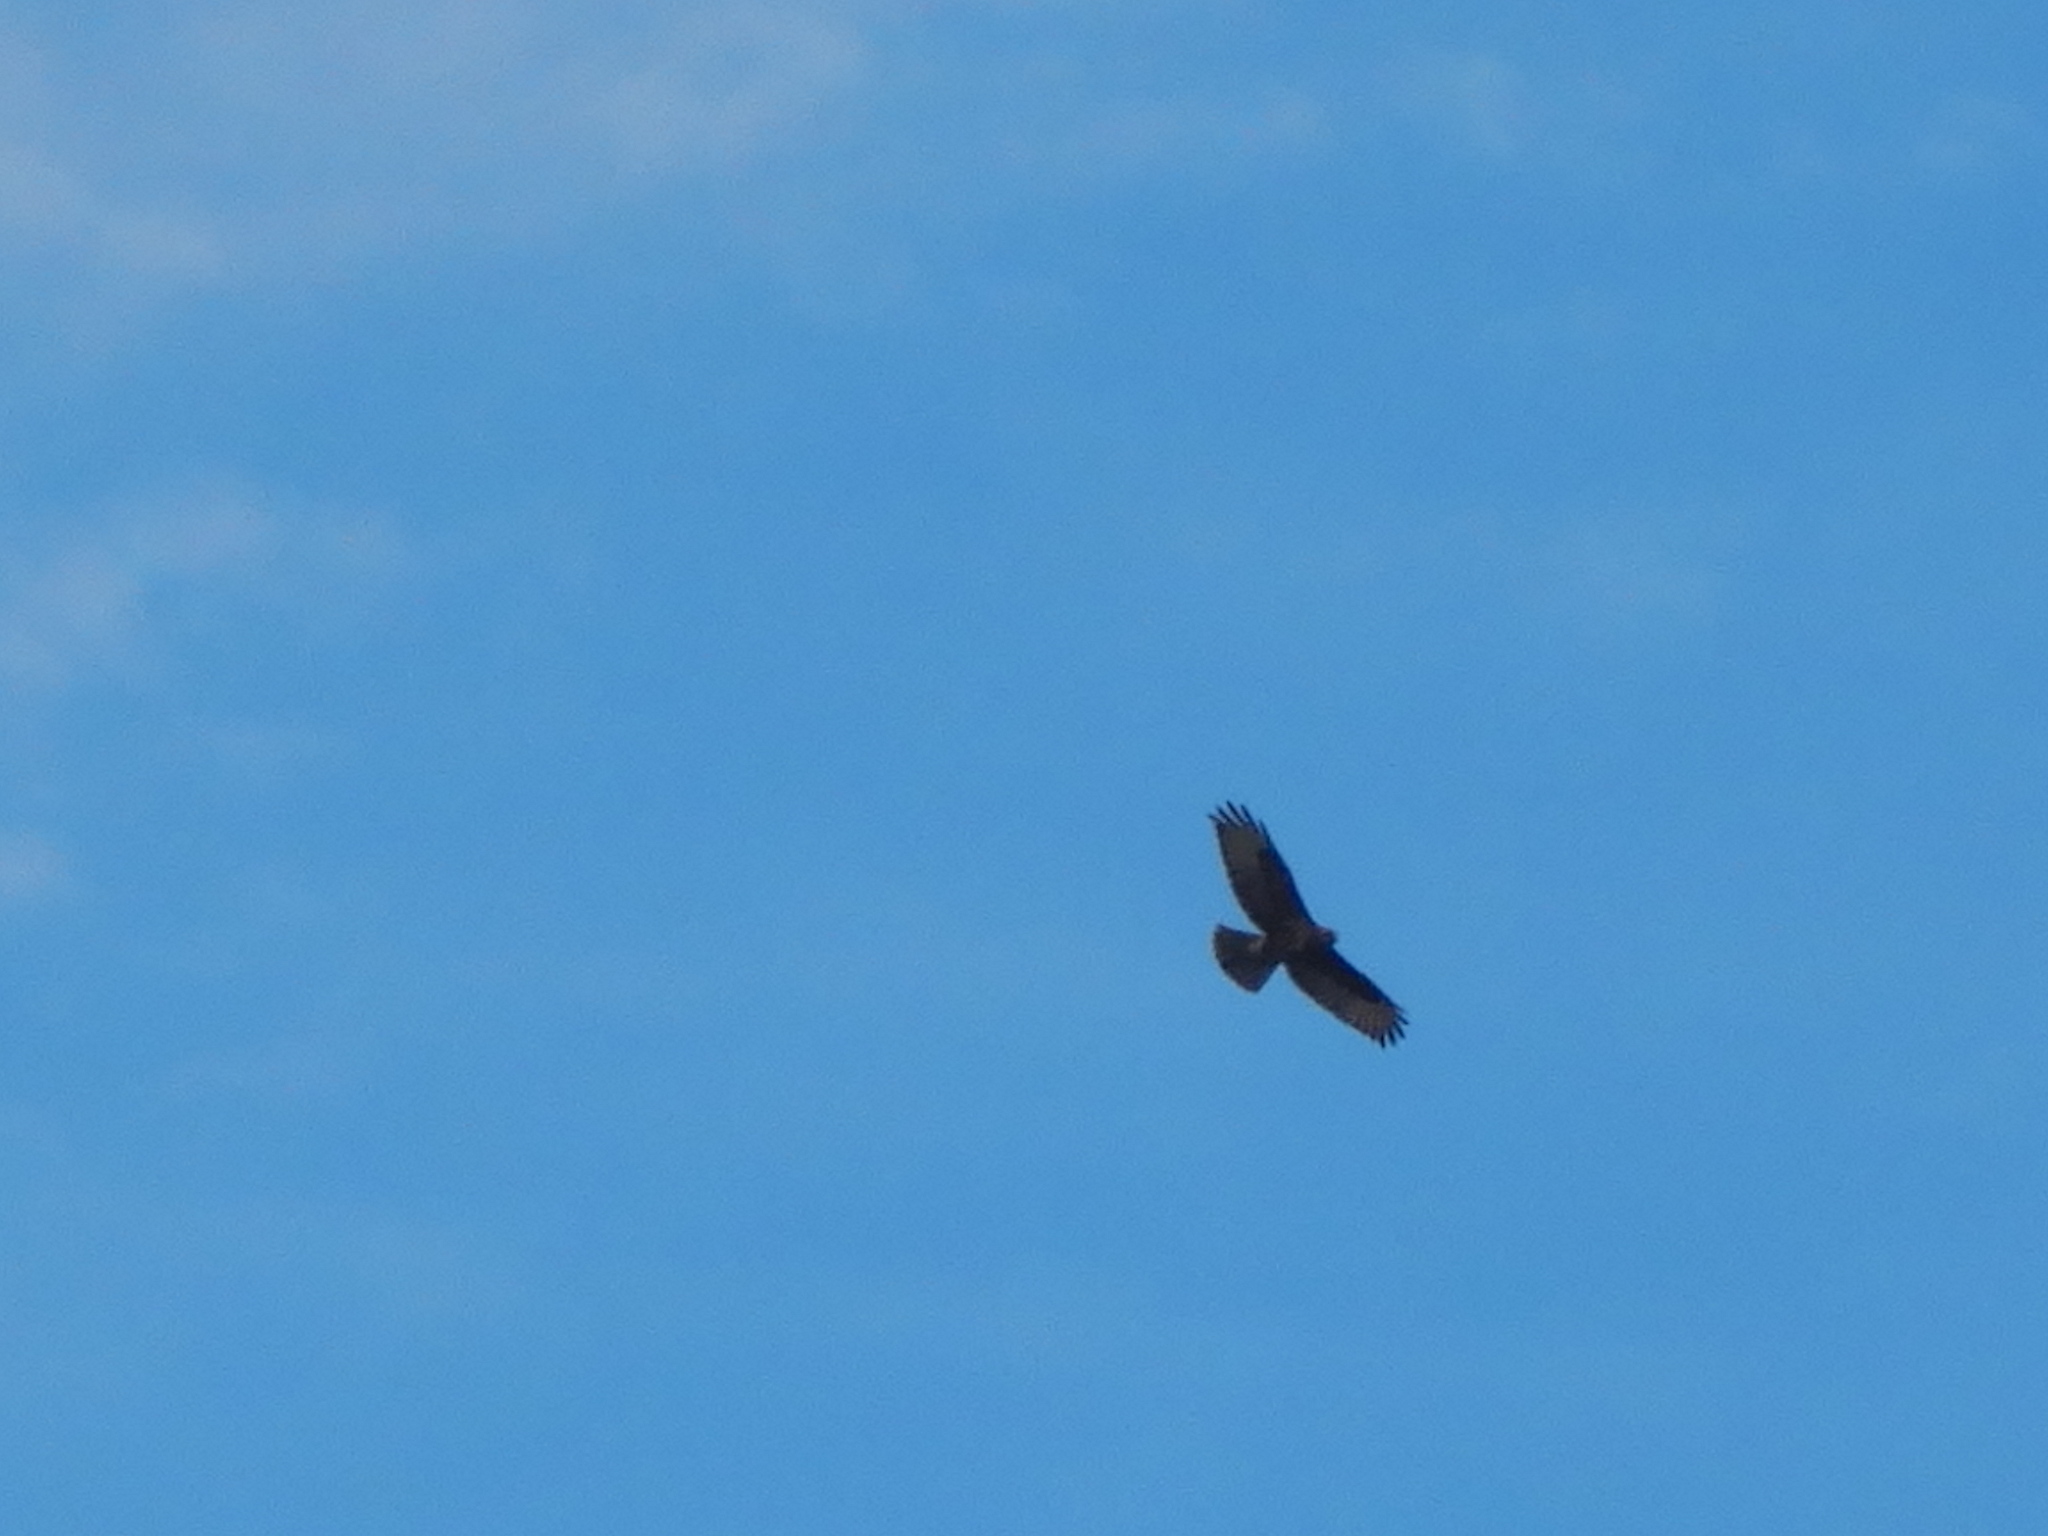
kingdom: Animalia
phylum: Chordata
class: Aves
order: Accipitriformes
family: Accipitridae
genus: Buteo
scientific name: Buteo buteo
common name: Common buzzard
